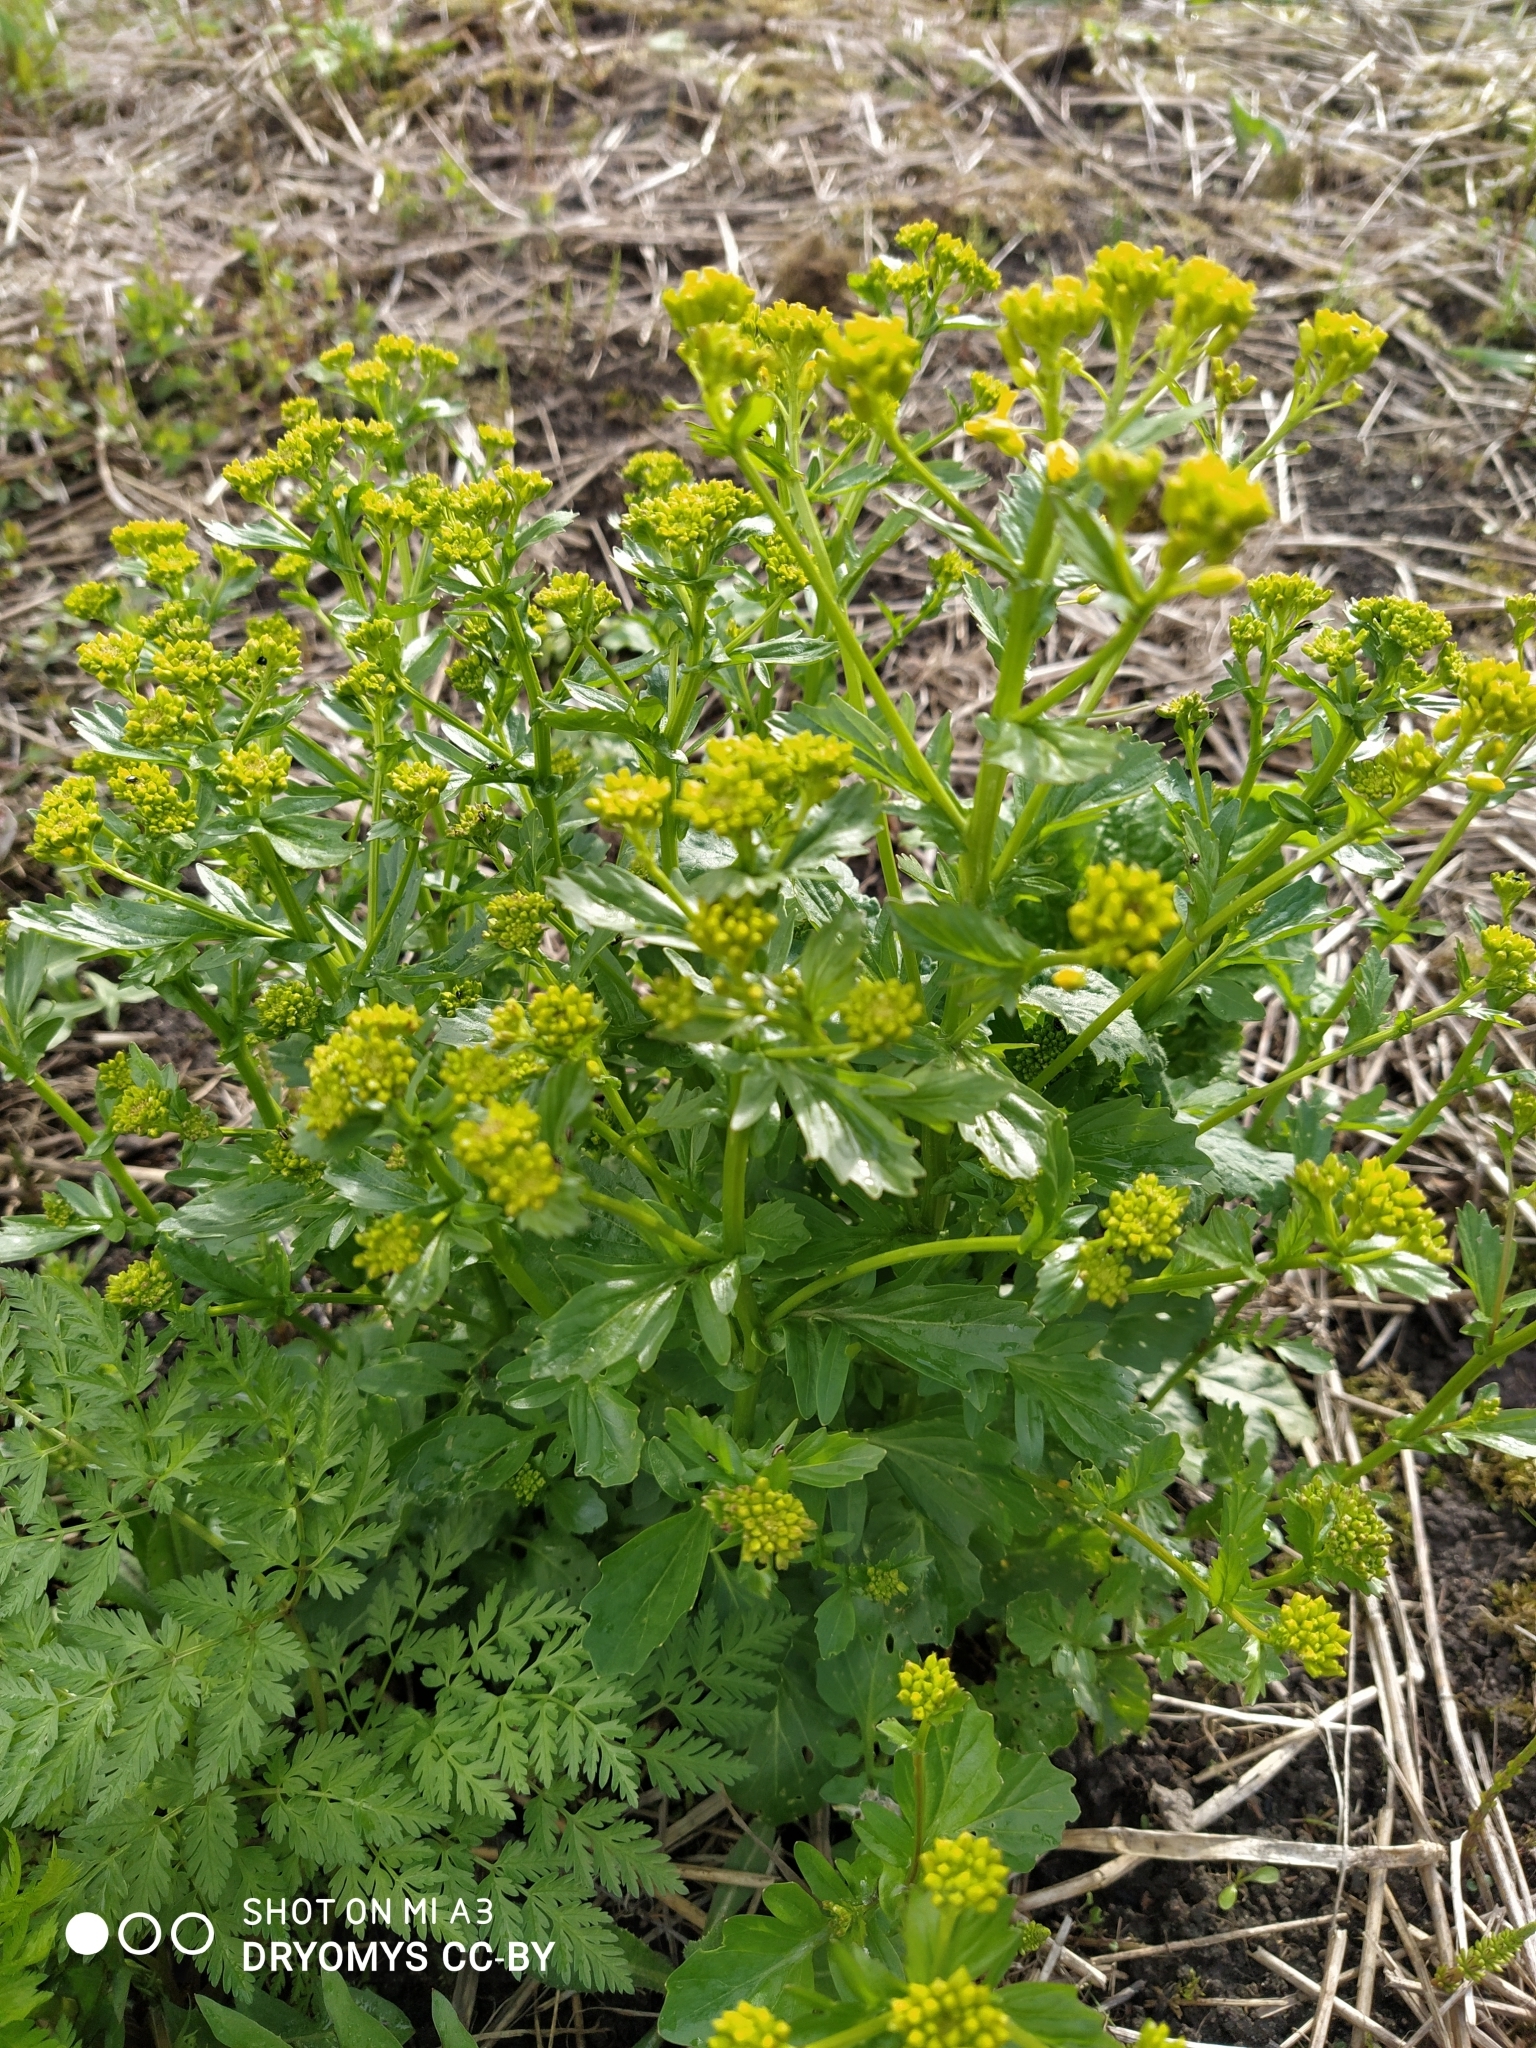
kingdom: Plantae
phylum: Tracheophyta
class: Magnoliopsida
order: Brassicales
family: Brassicaceae
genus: Barbarea
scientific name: Barbarea vulgaris
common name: Cressy-greens
